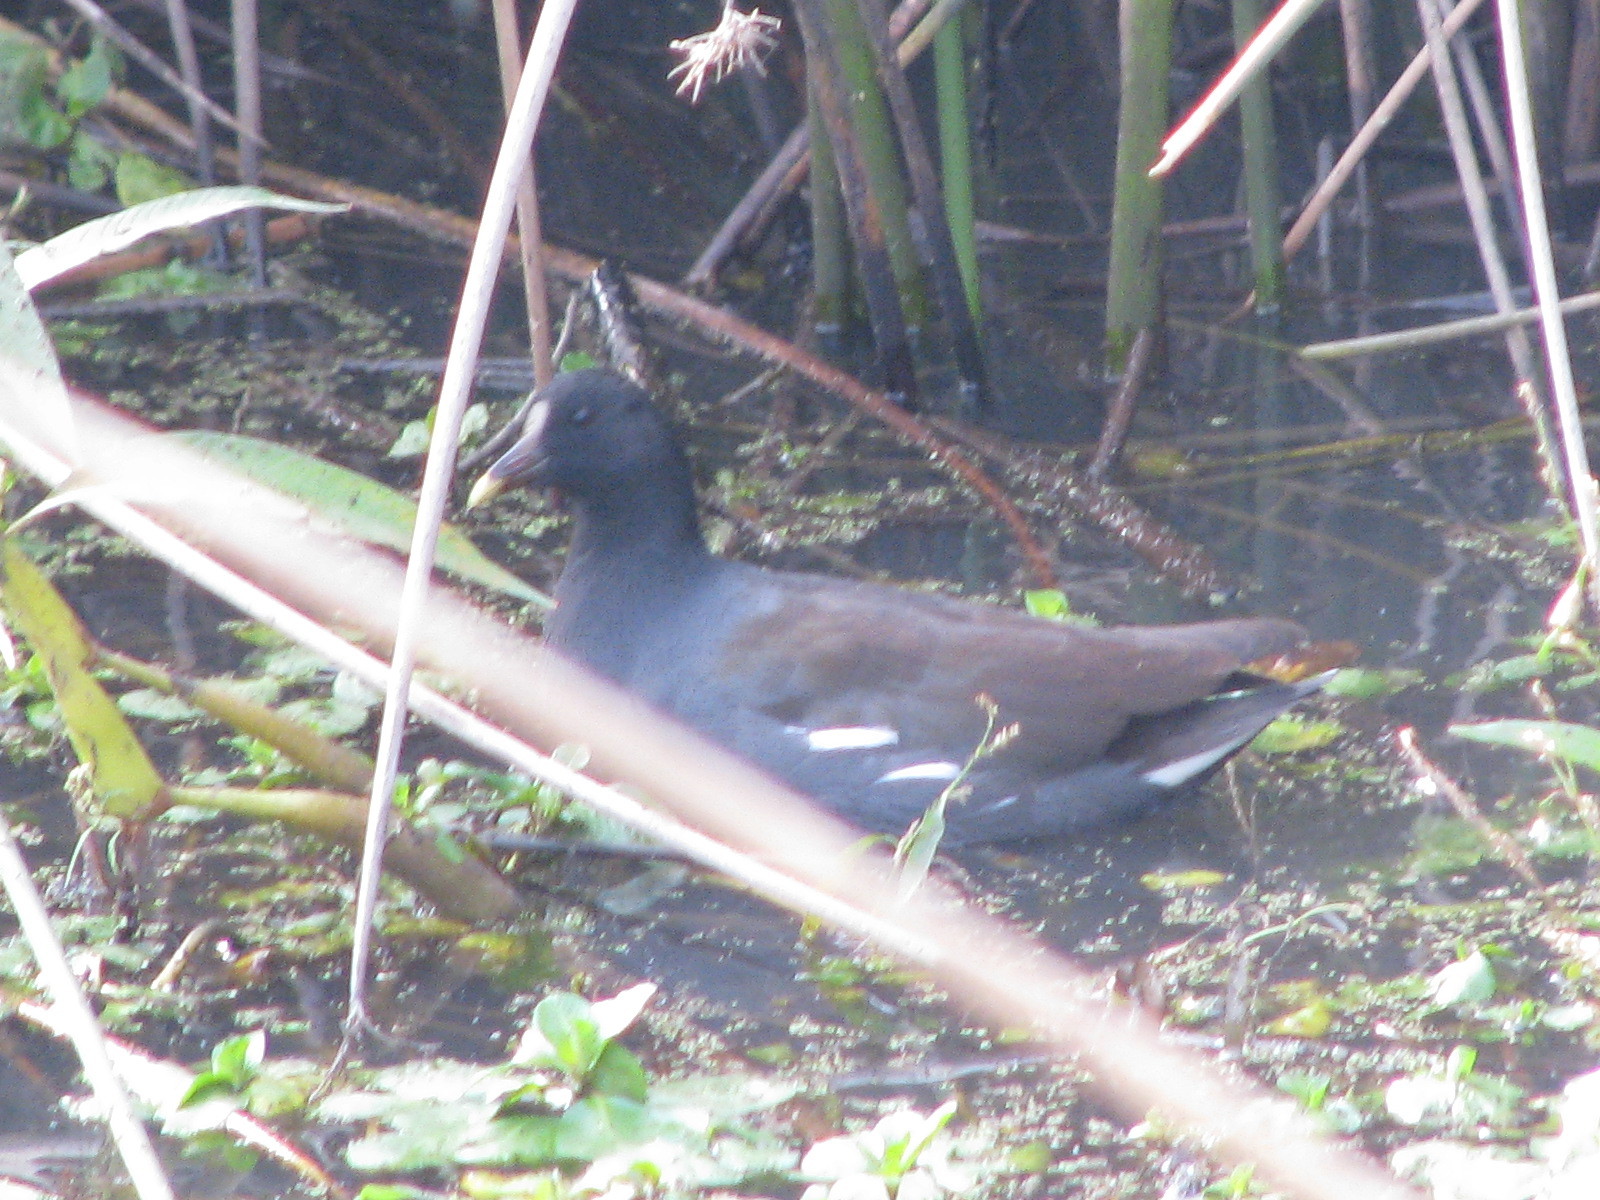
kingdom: Animalia
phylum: Chordata
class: Aves
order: Gruiformes
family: Rallidae
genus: Gallinula
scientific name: Gallinula chloropus
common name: Common moorhen
